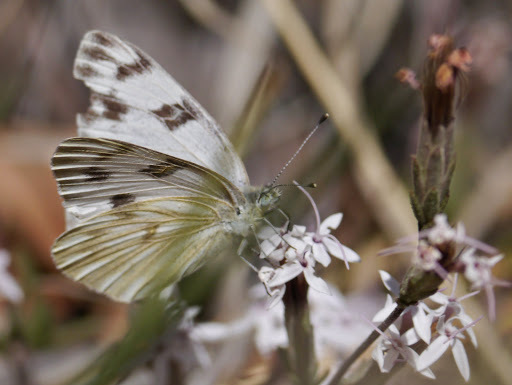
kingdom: Animalia
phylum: Arthropoda
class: Insecta
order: Lepidoptera
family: Pieridae
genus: Pontia
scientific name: Pontia protodice
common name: Checkered white
